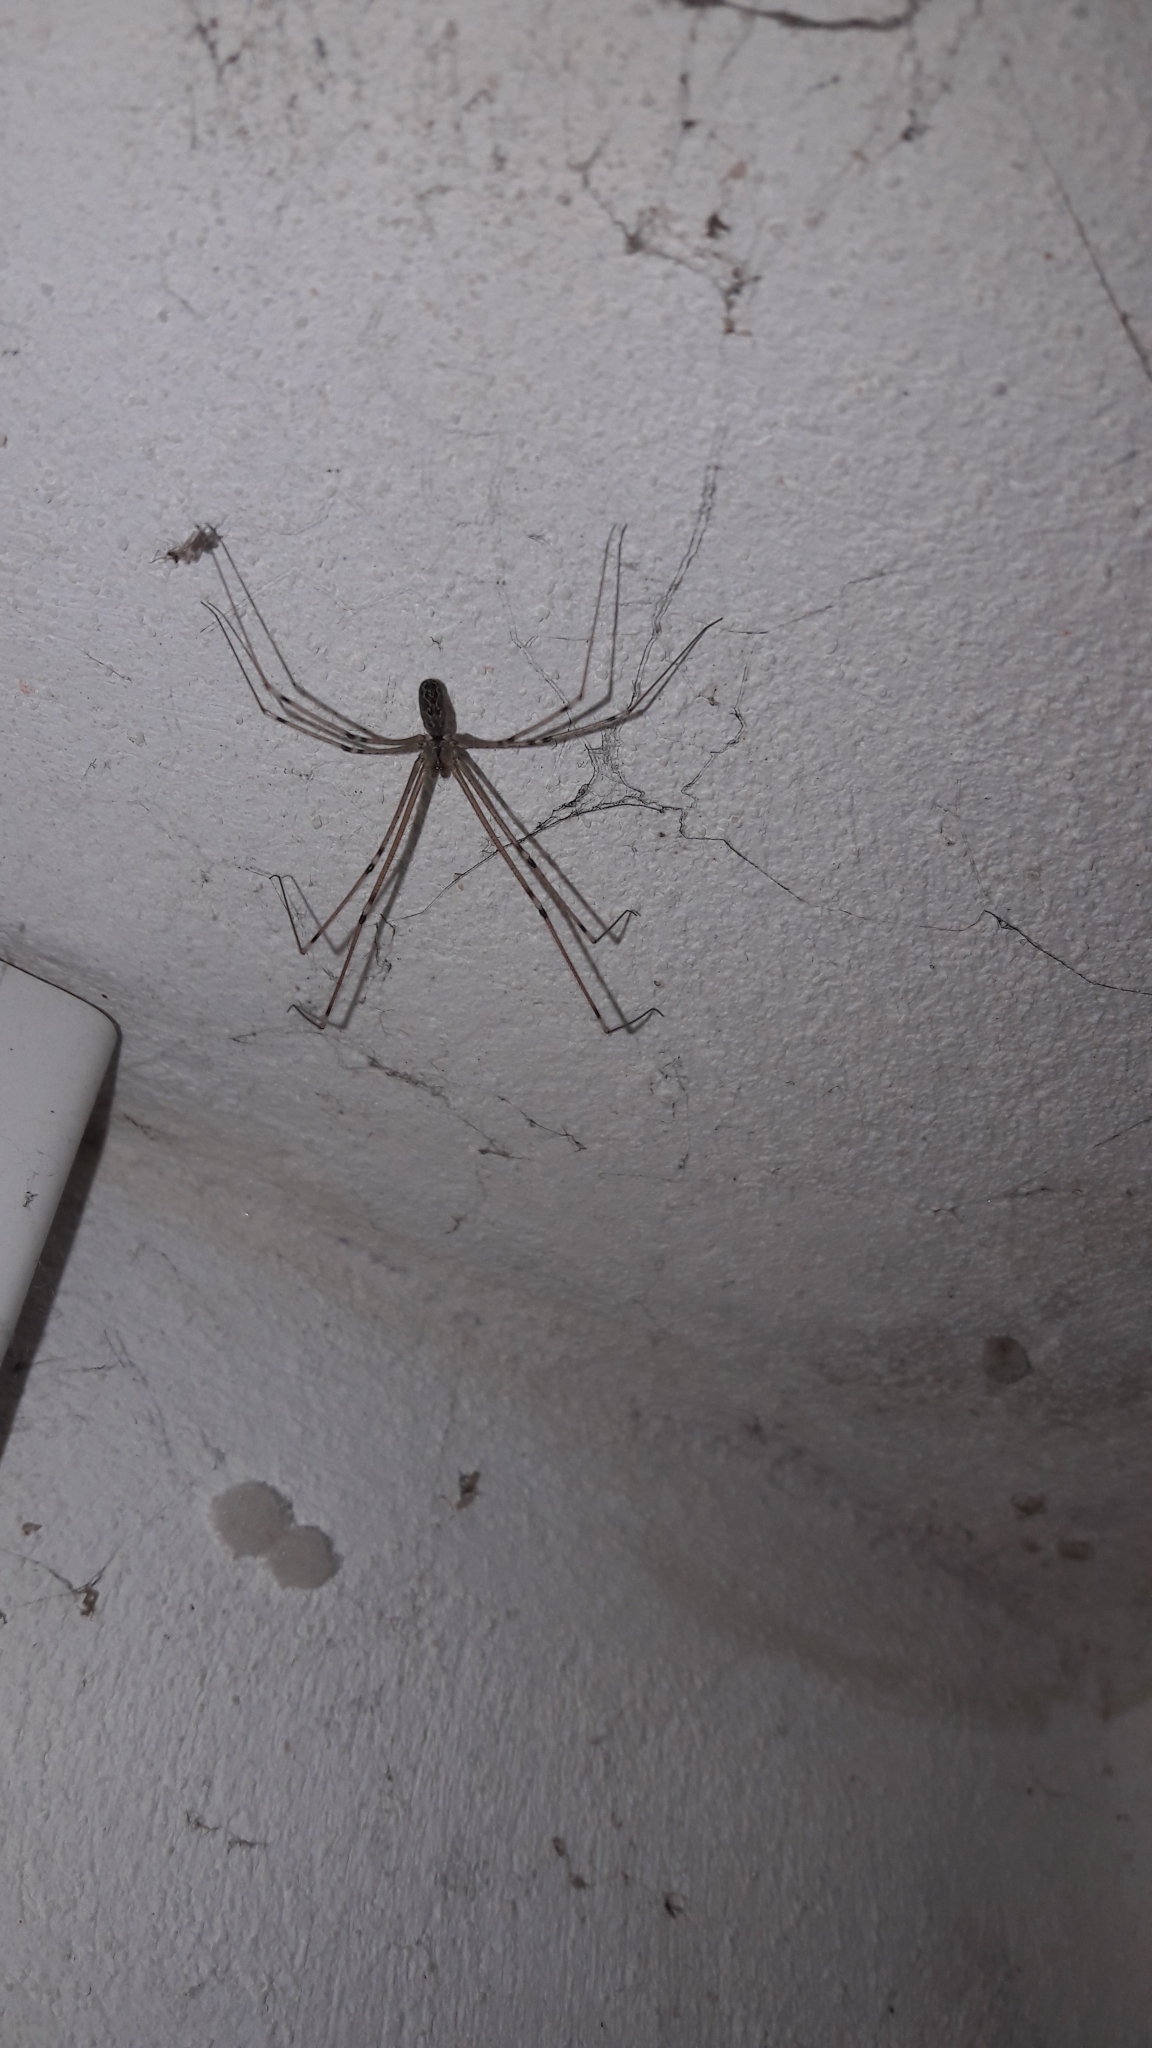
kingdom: Animalia
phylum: Arthropoda
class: Arachnida
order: Araneae
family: Pholcidae
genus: Holocnemus
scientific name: Holocnemus pluchei
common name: Marbled cellar spider
